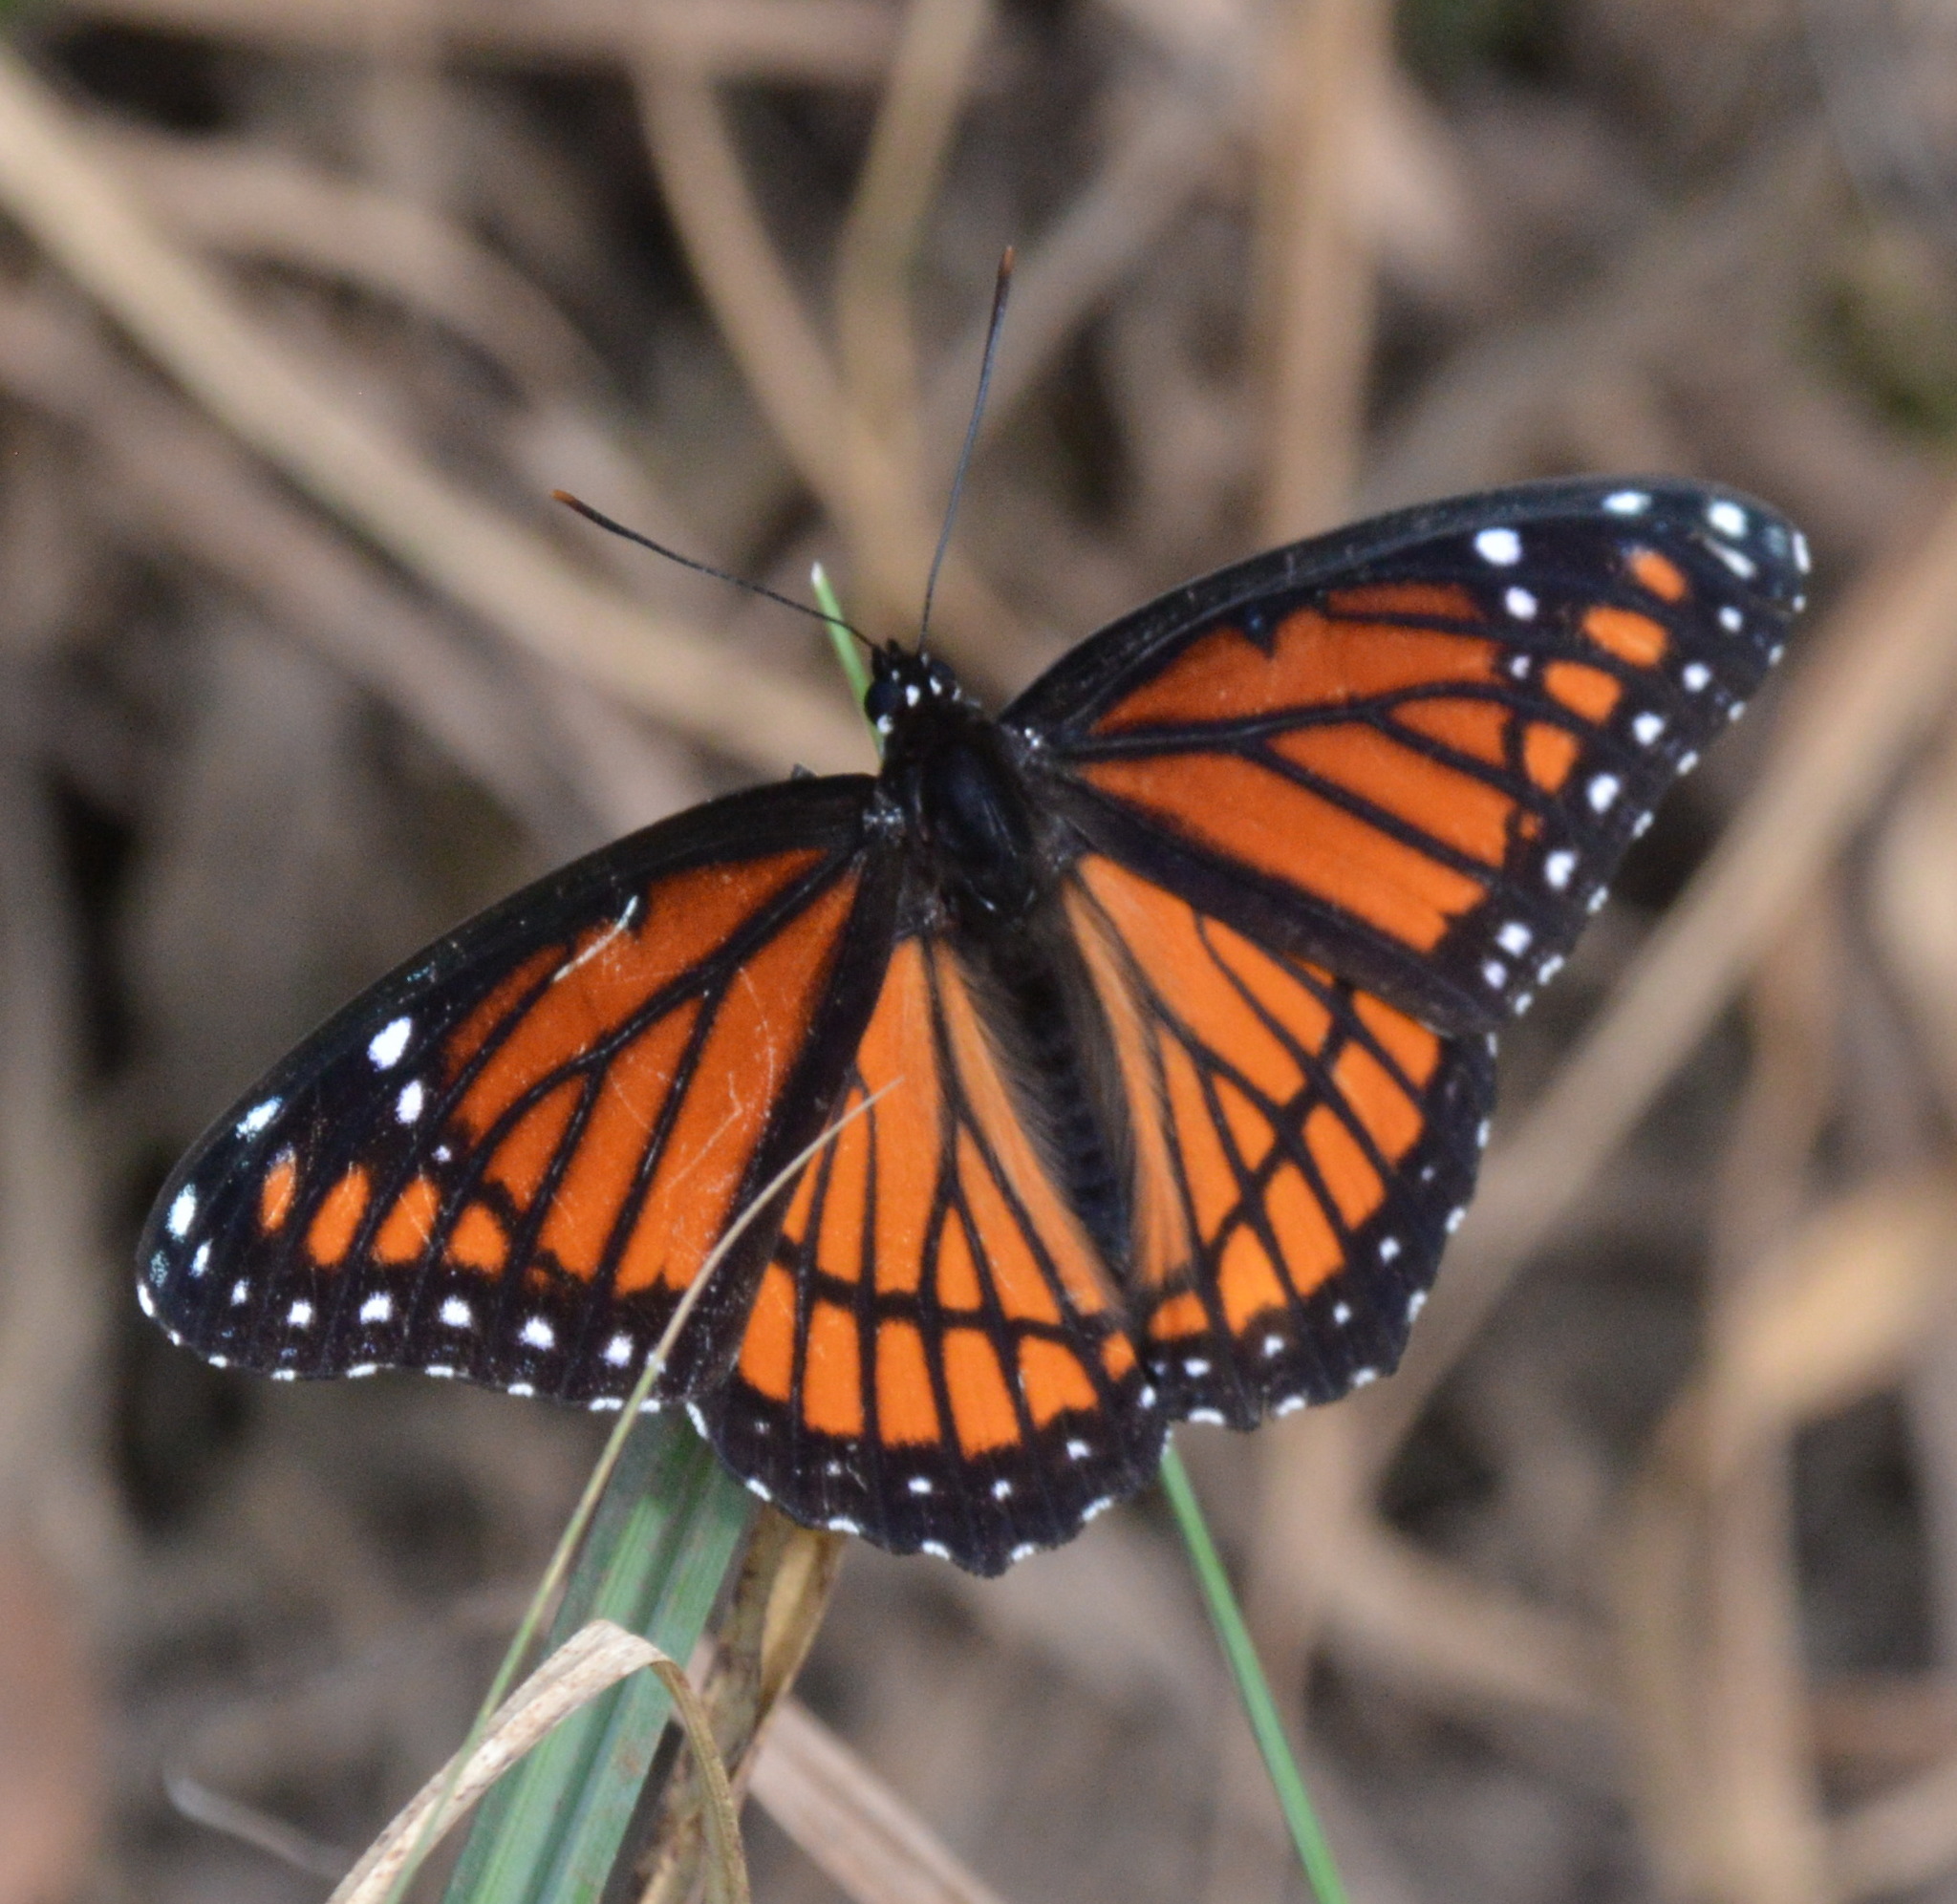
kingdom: Animalia
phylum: Arthropoda
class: Insecta
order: Lepidoptera
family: Nymphalidae
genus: Limenitis
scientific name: Limenitis archippus
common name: Viceroy
